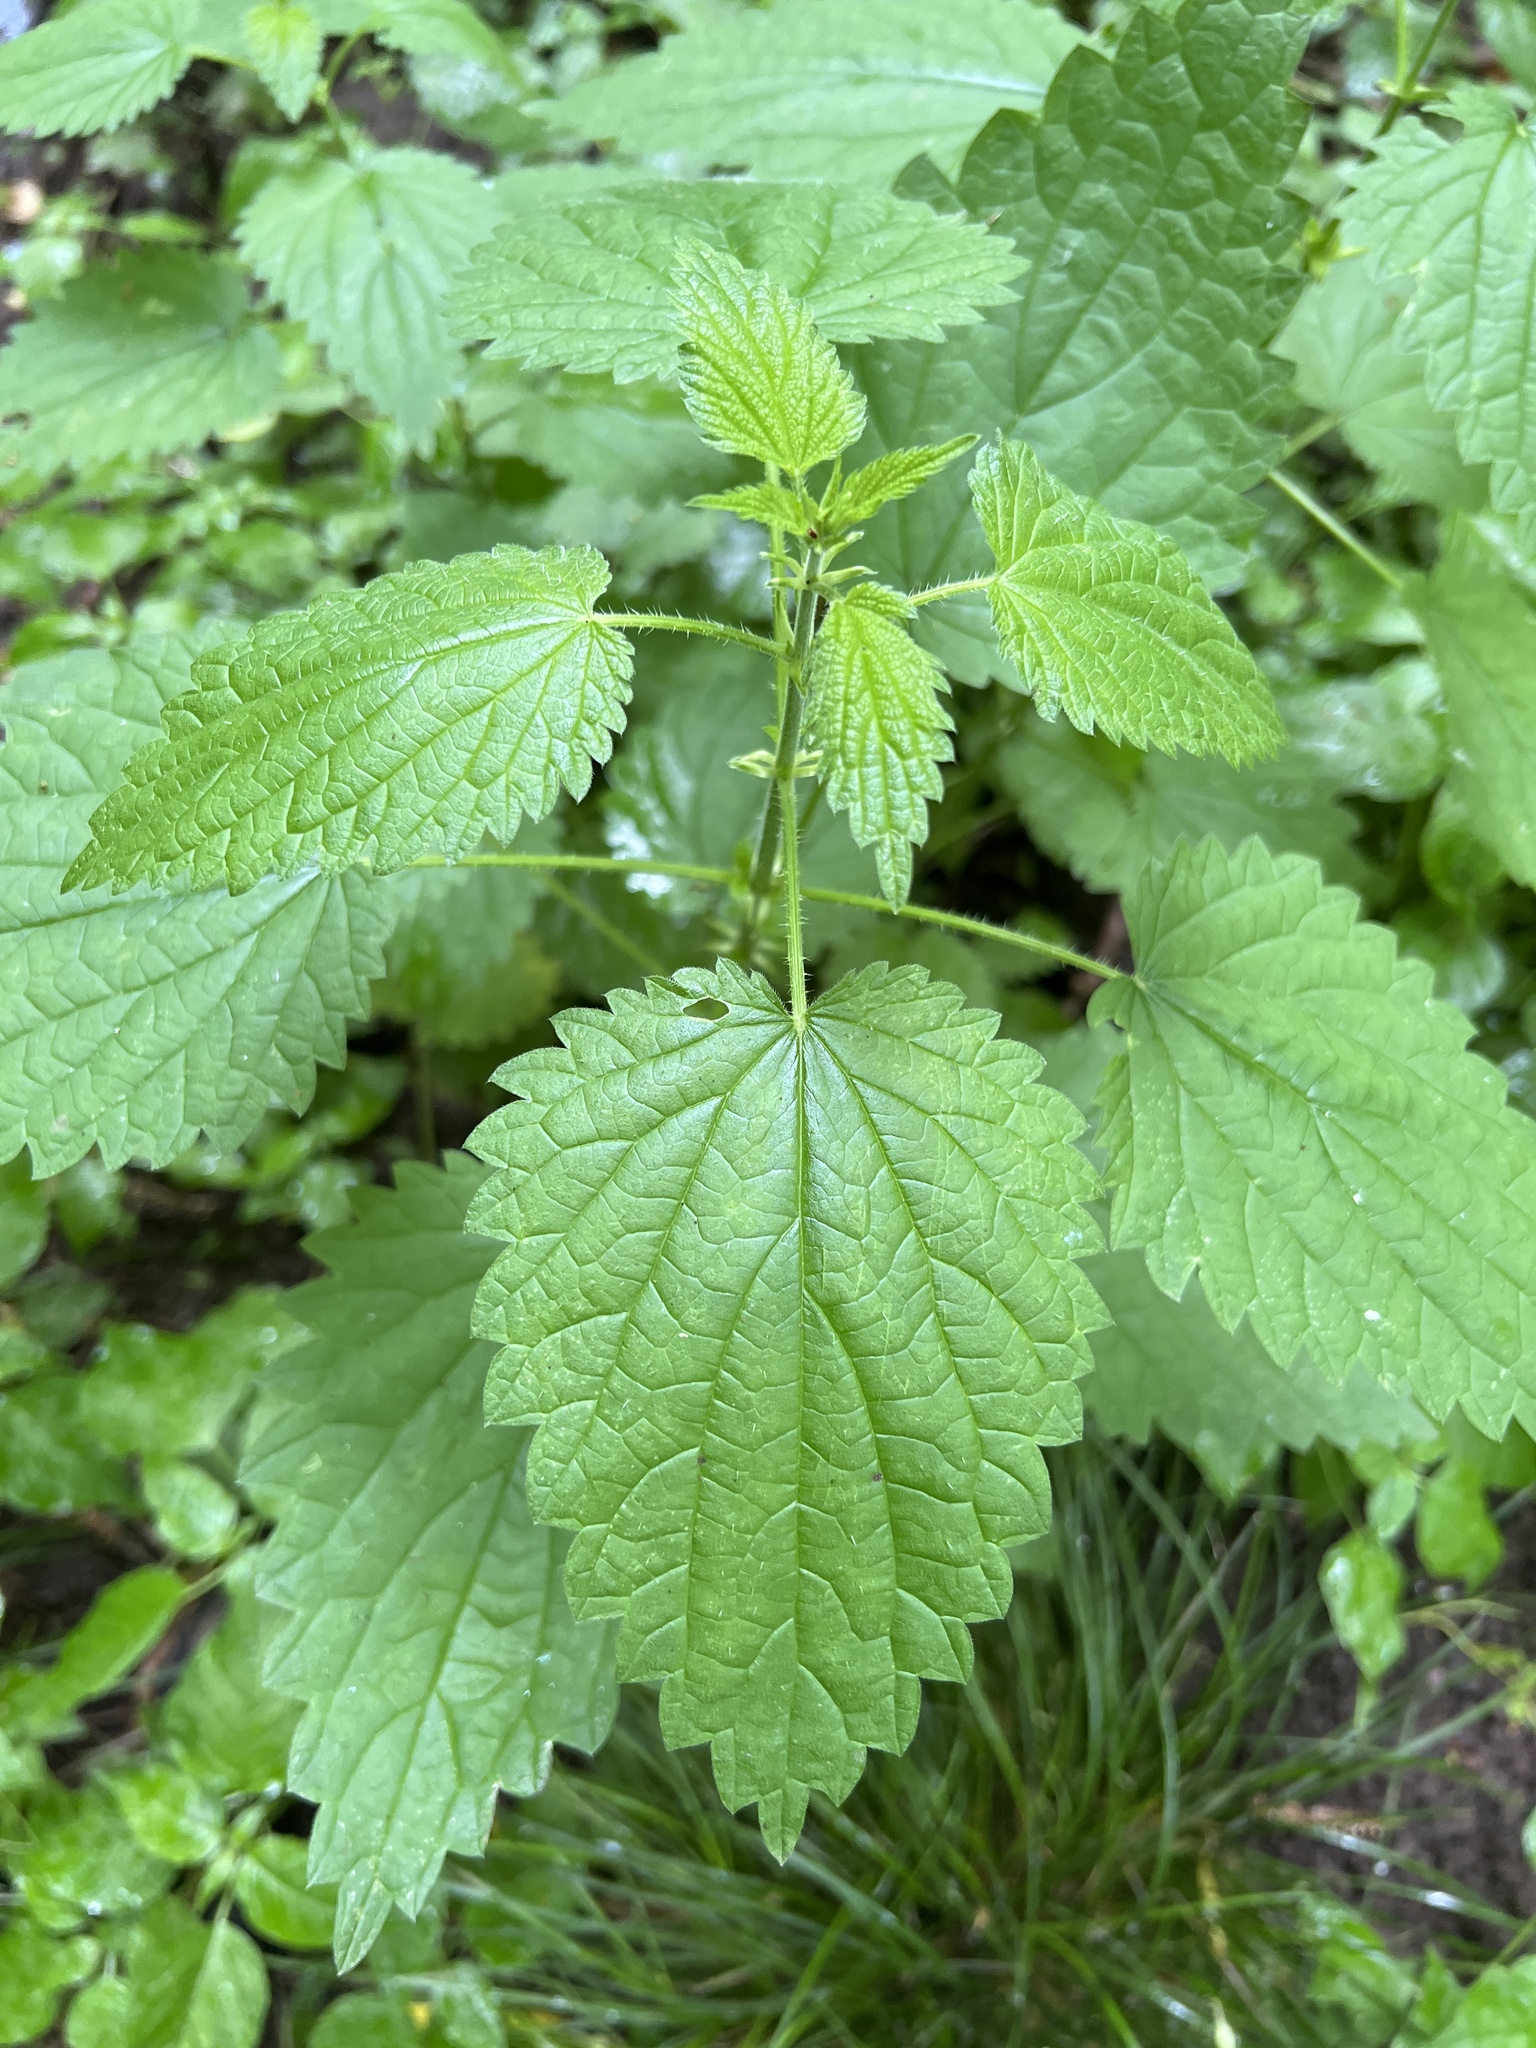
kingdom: Plantae
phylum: Tracheophyta
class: Magnoliopsida
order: Rosales
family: Urticaceae
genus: Urtica
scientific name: Urtica dioica
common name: Common nettle
